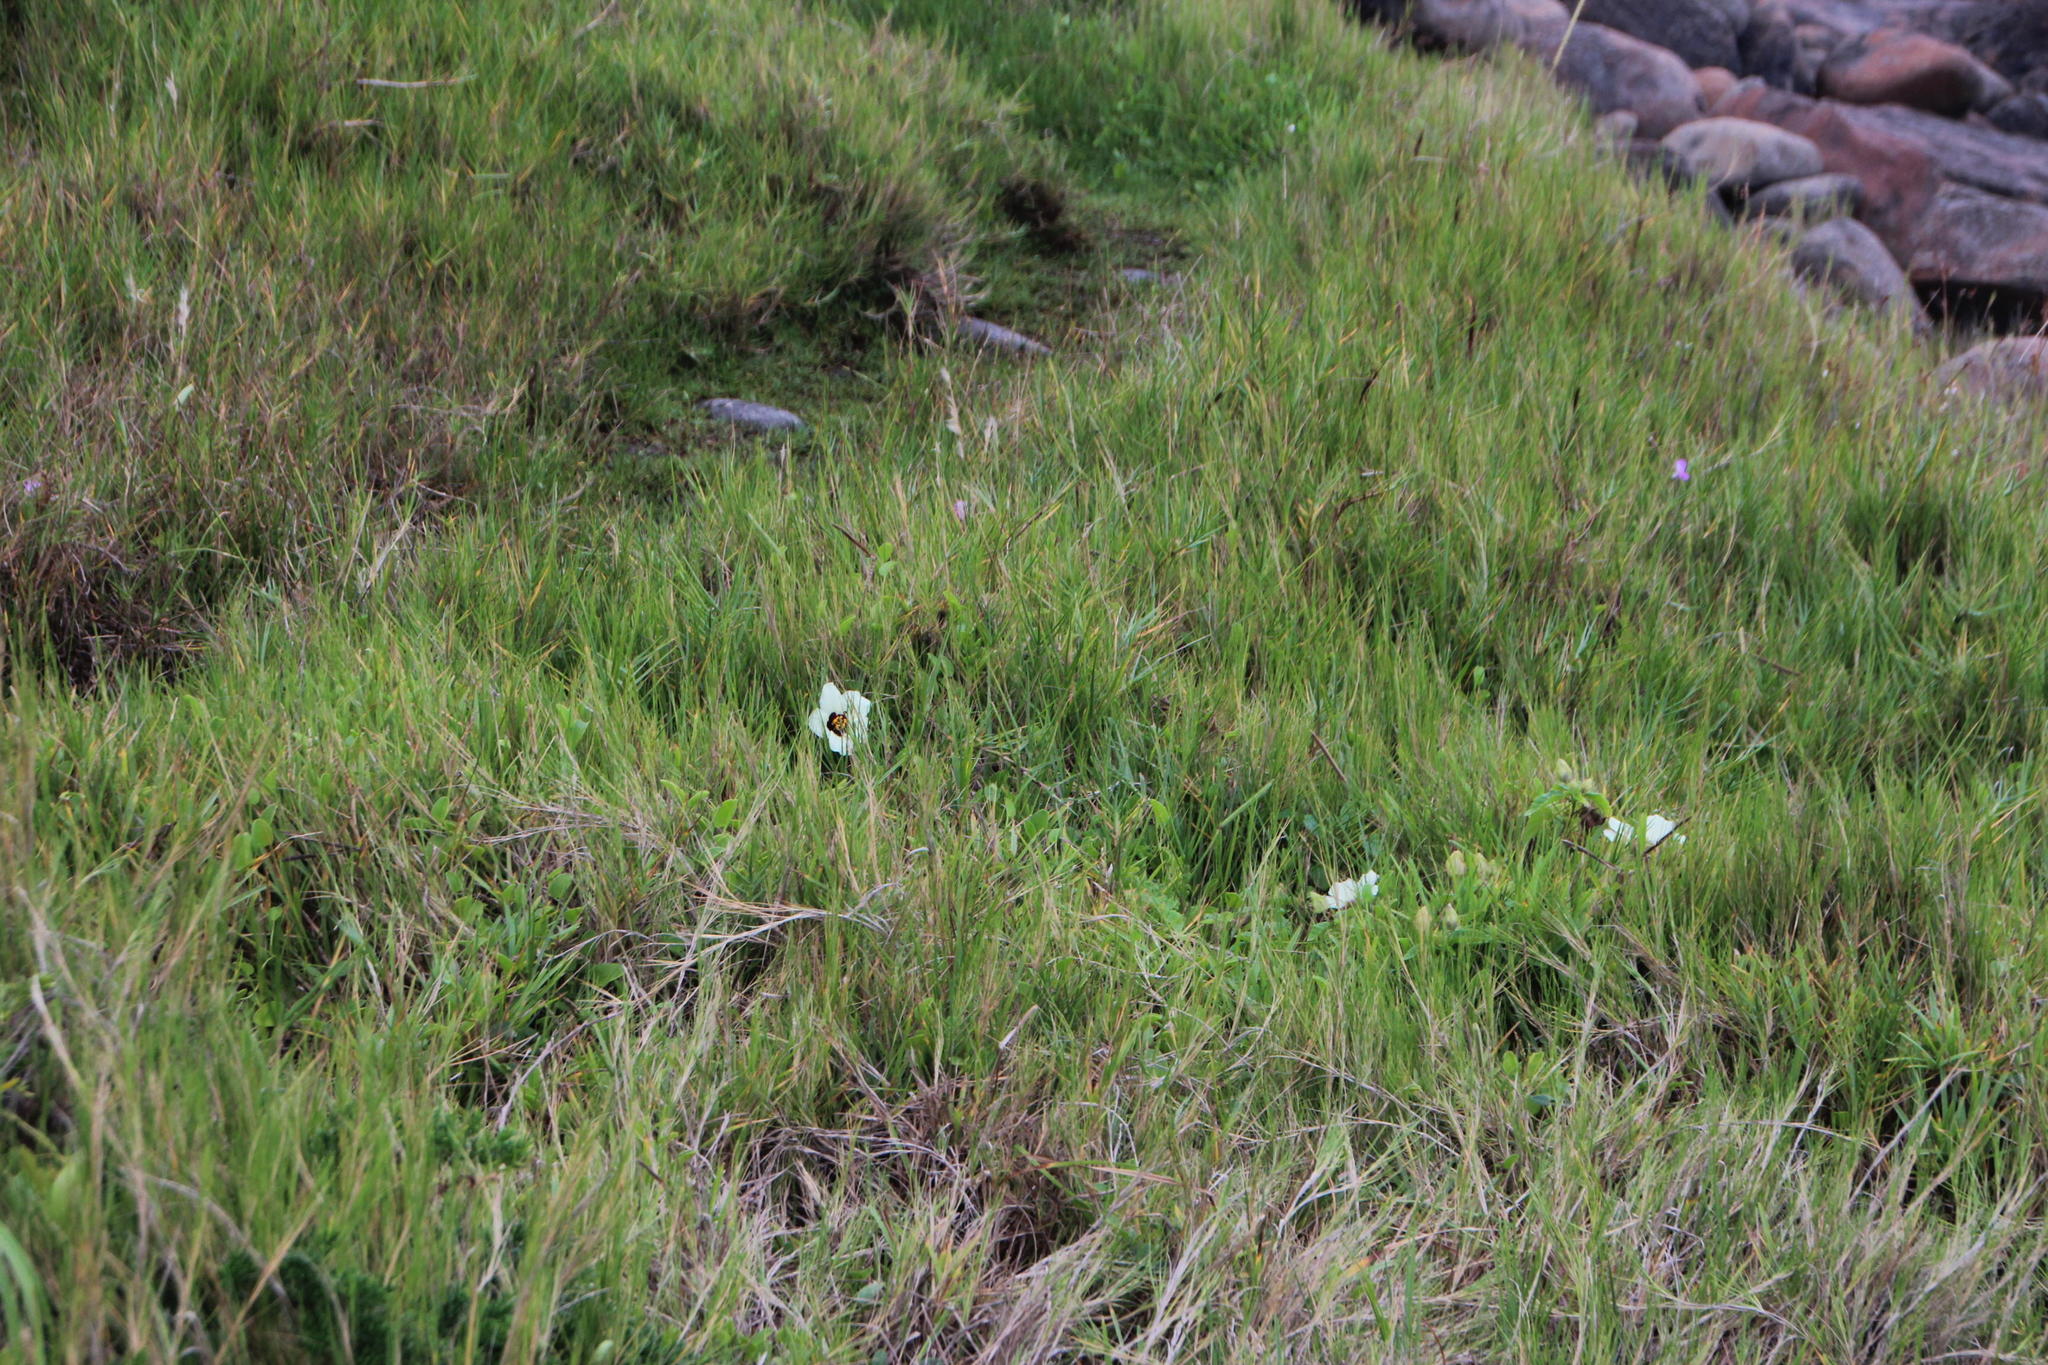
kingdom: Plantae
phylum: Tracheophyta
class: Magnoliopsida
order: Malvales
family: Malvaceae
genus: Hibiscus
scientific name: Hibiscus trionum
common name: Bladder ketmia
